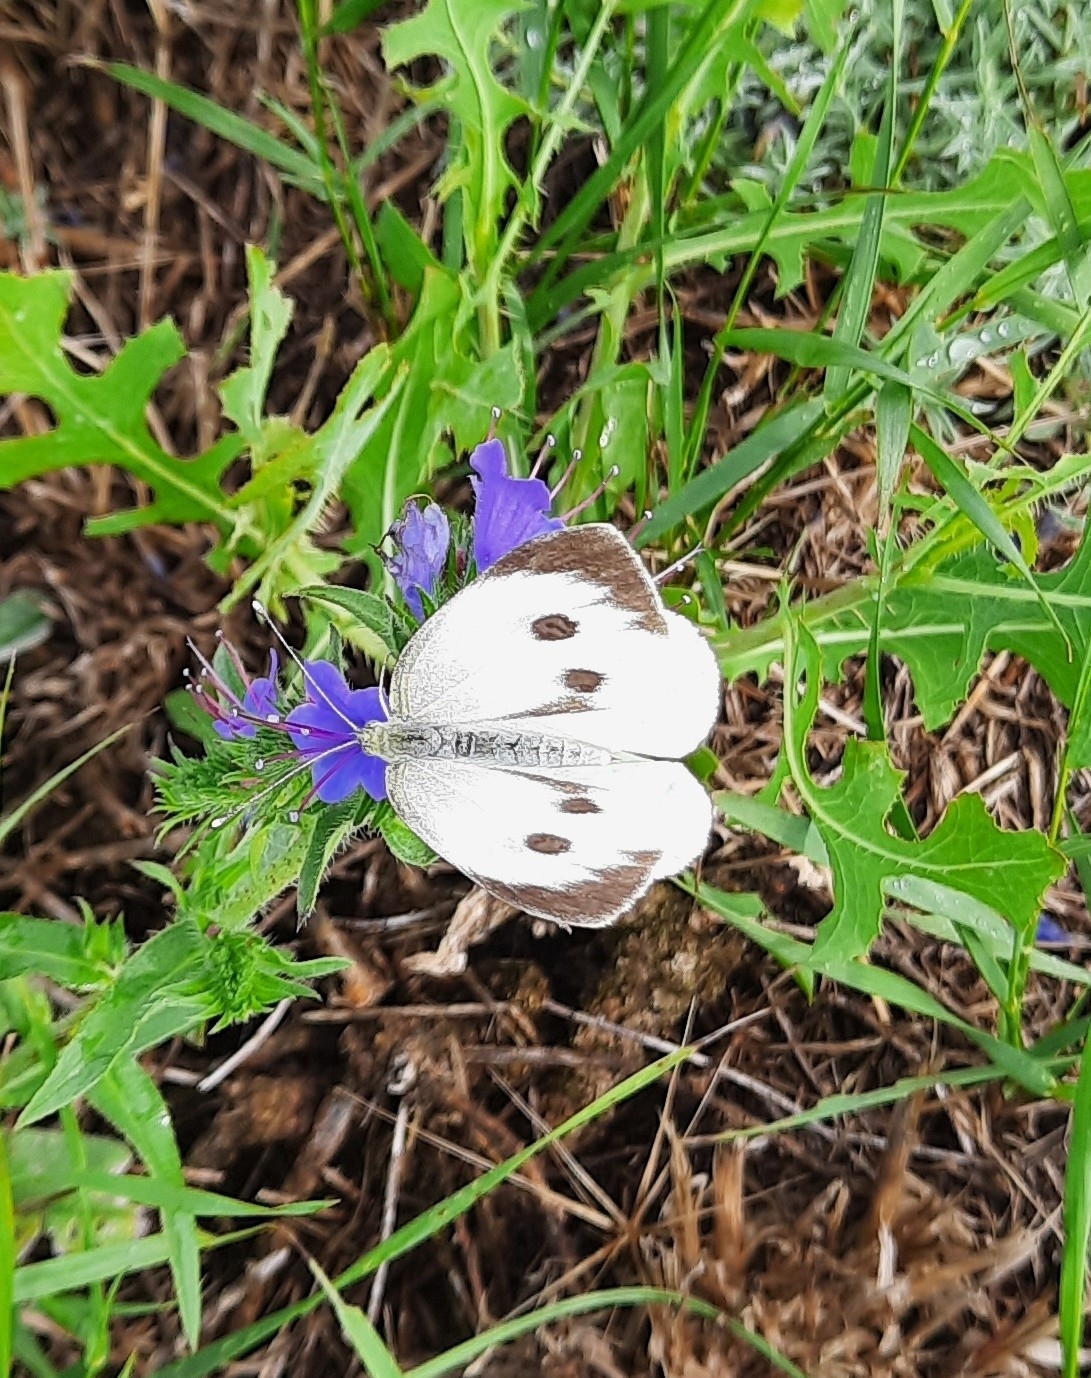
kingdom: Animalia
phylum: Arthropoda
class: Insecta
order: Lepidoptera
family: Pieridae
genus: Pieris
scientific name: Pieris brassicae
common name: Large white
